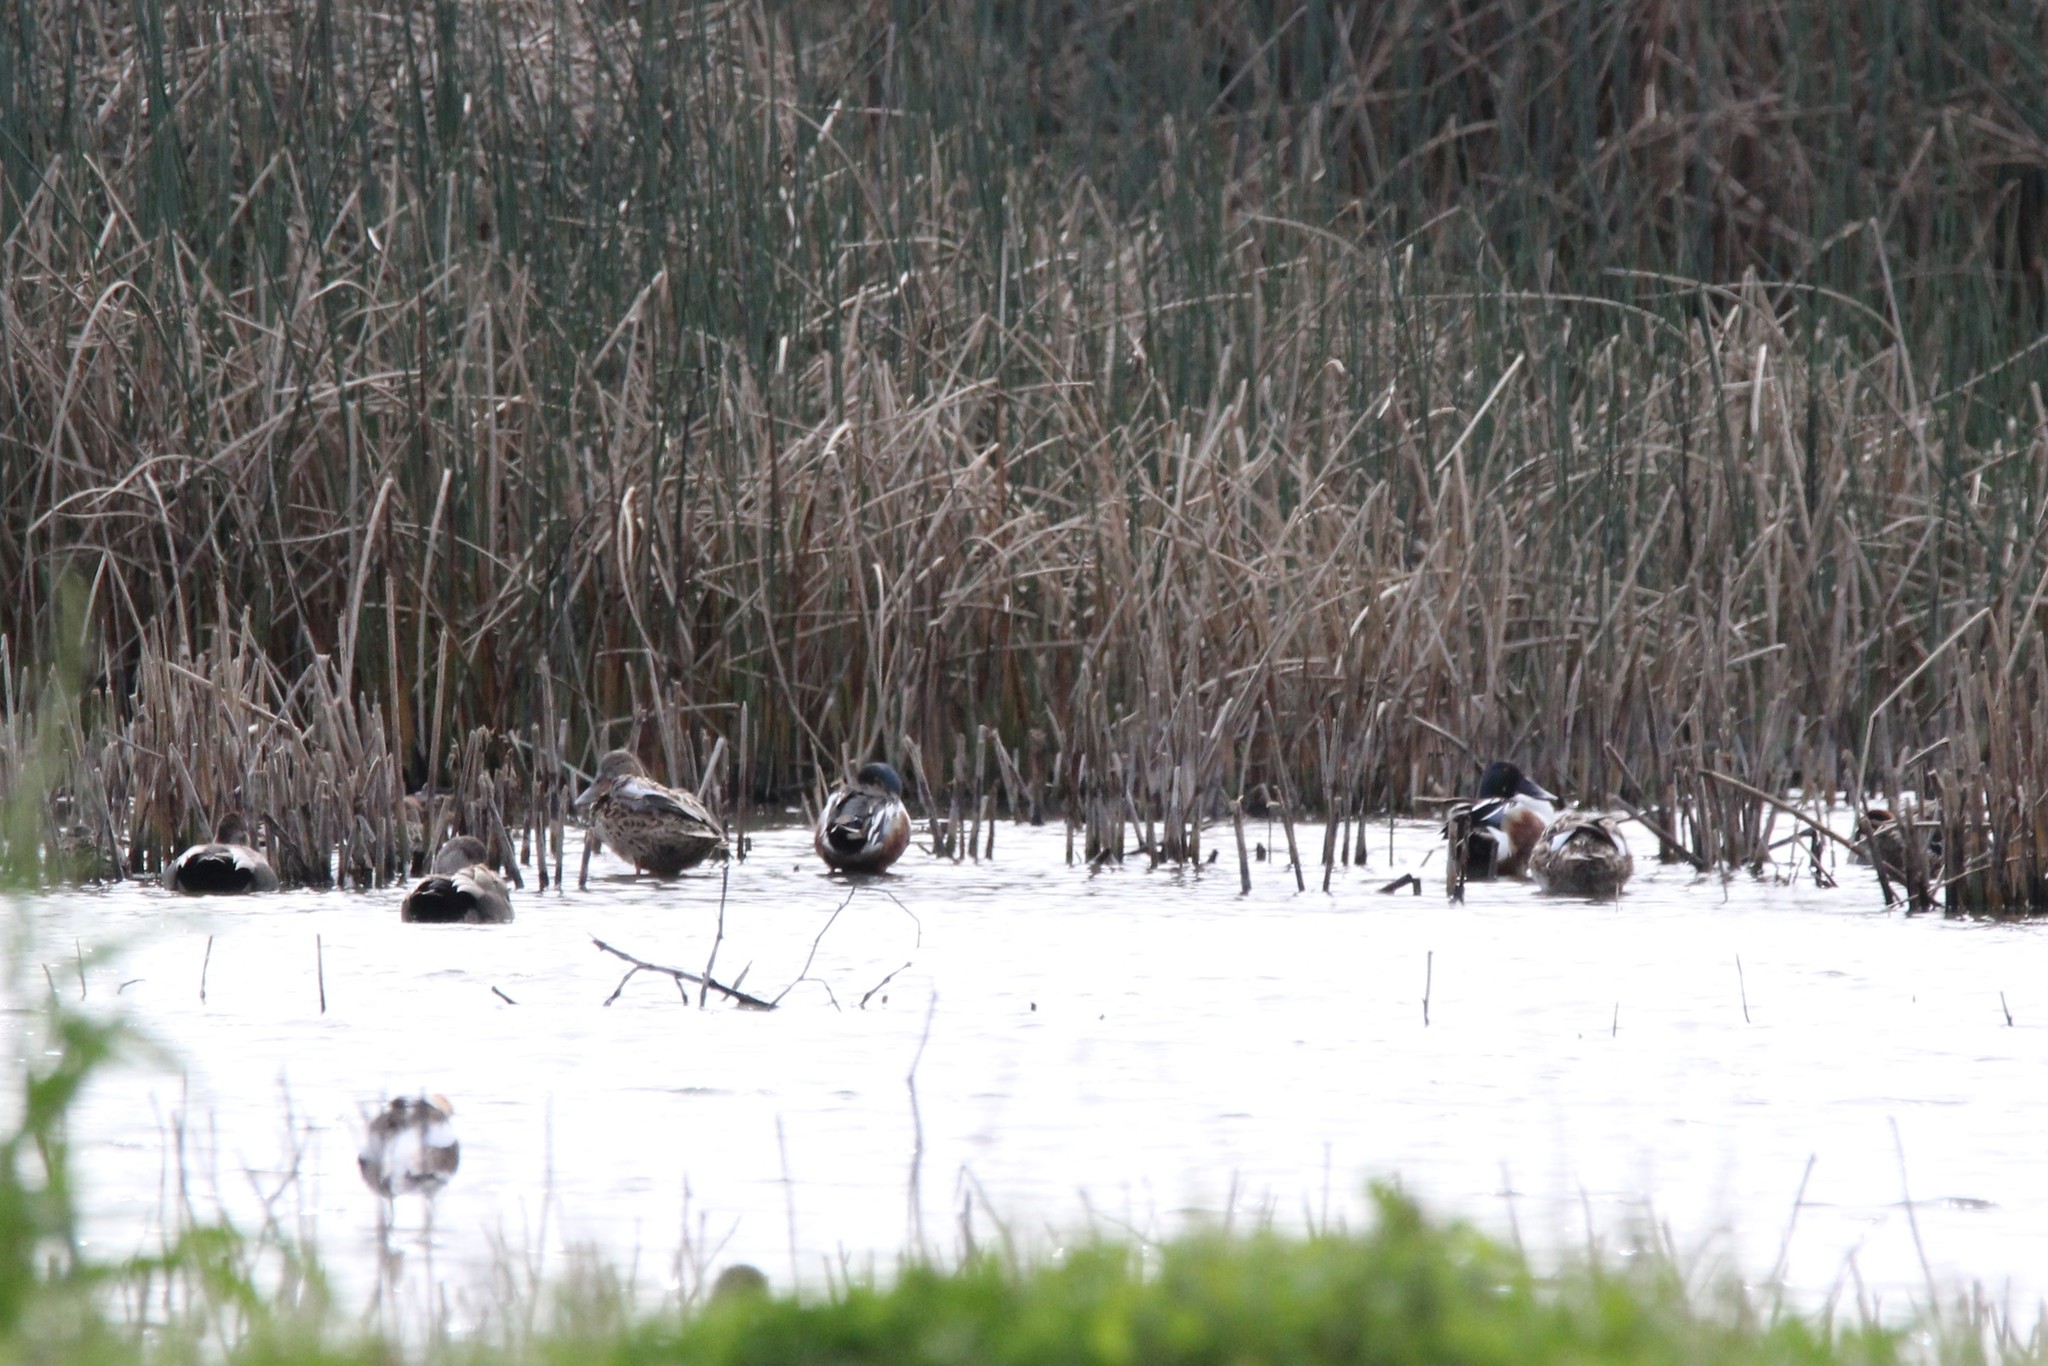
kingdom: Animalia
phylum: Chordata
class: Aves
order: Anseriformes
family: Anatidae
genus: Spatula
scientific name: Spatula clypeata
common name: Northern shoveler
